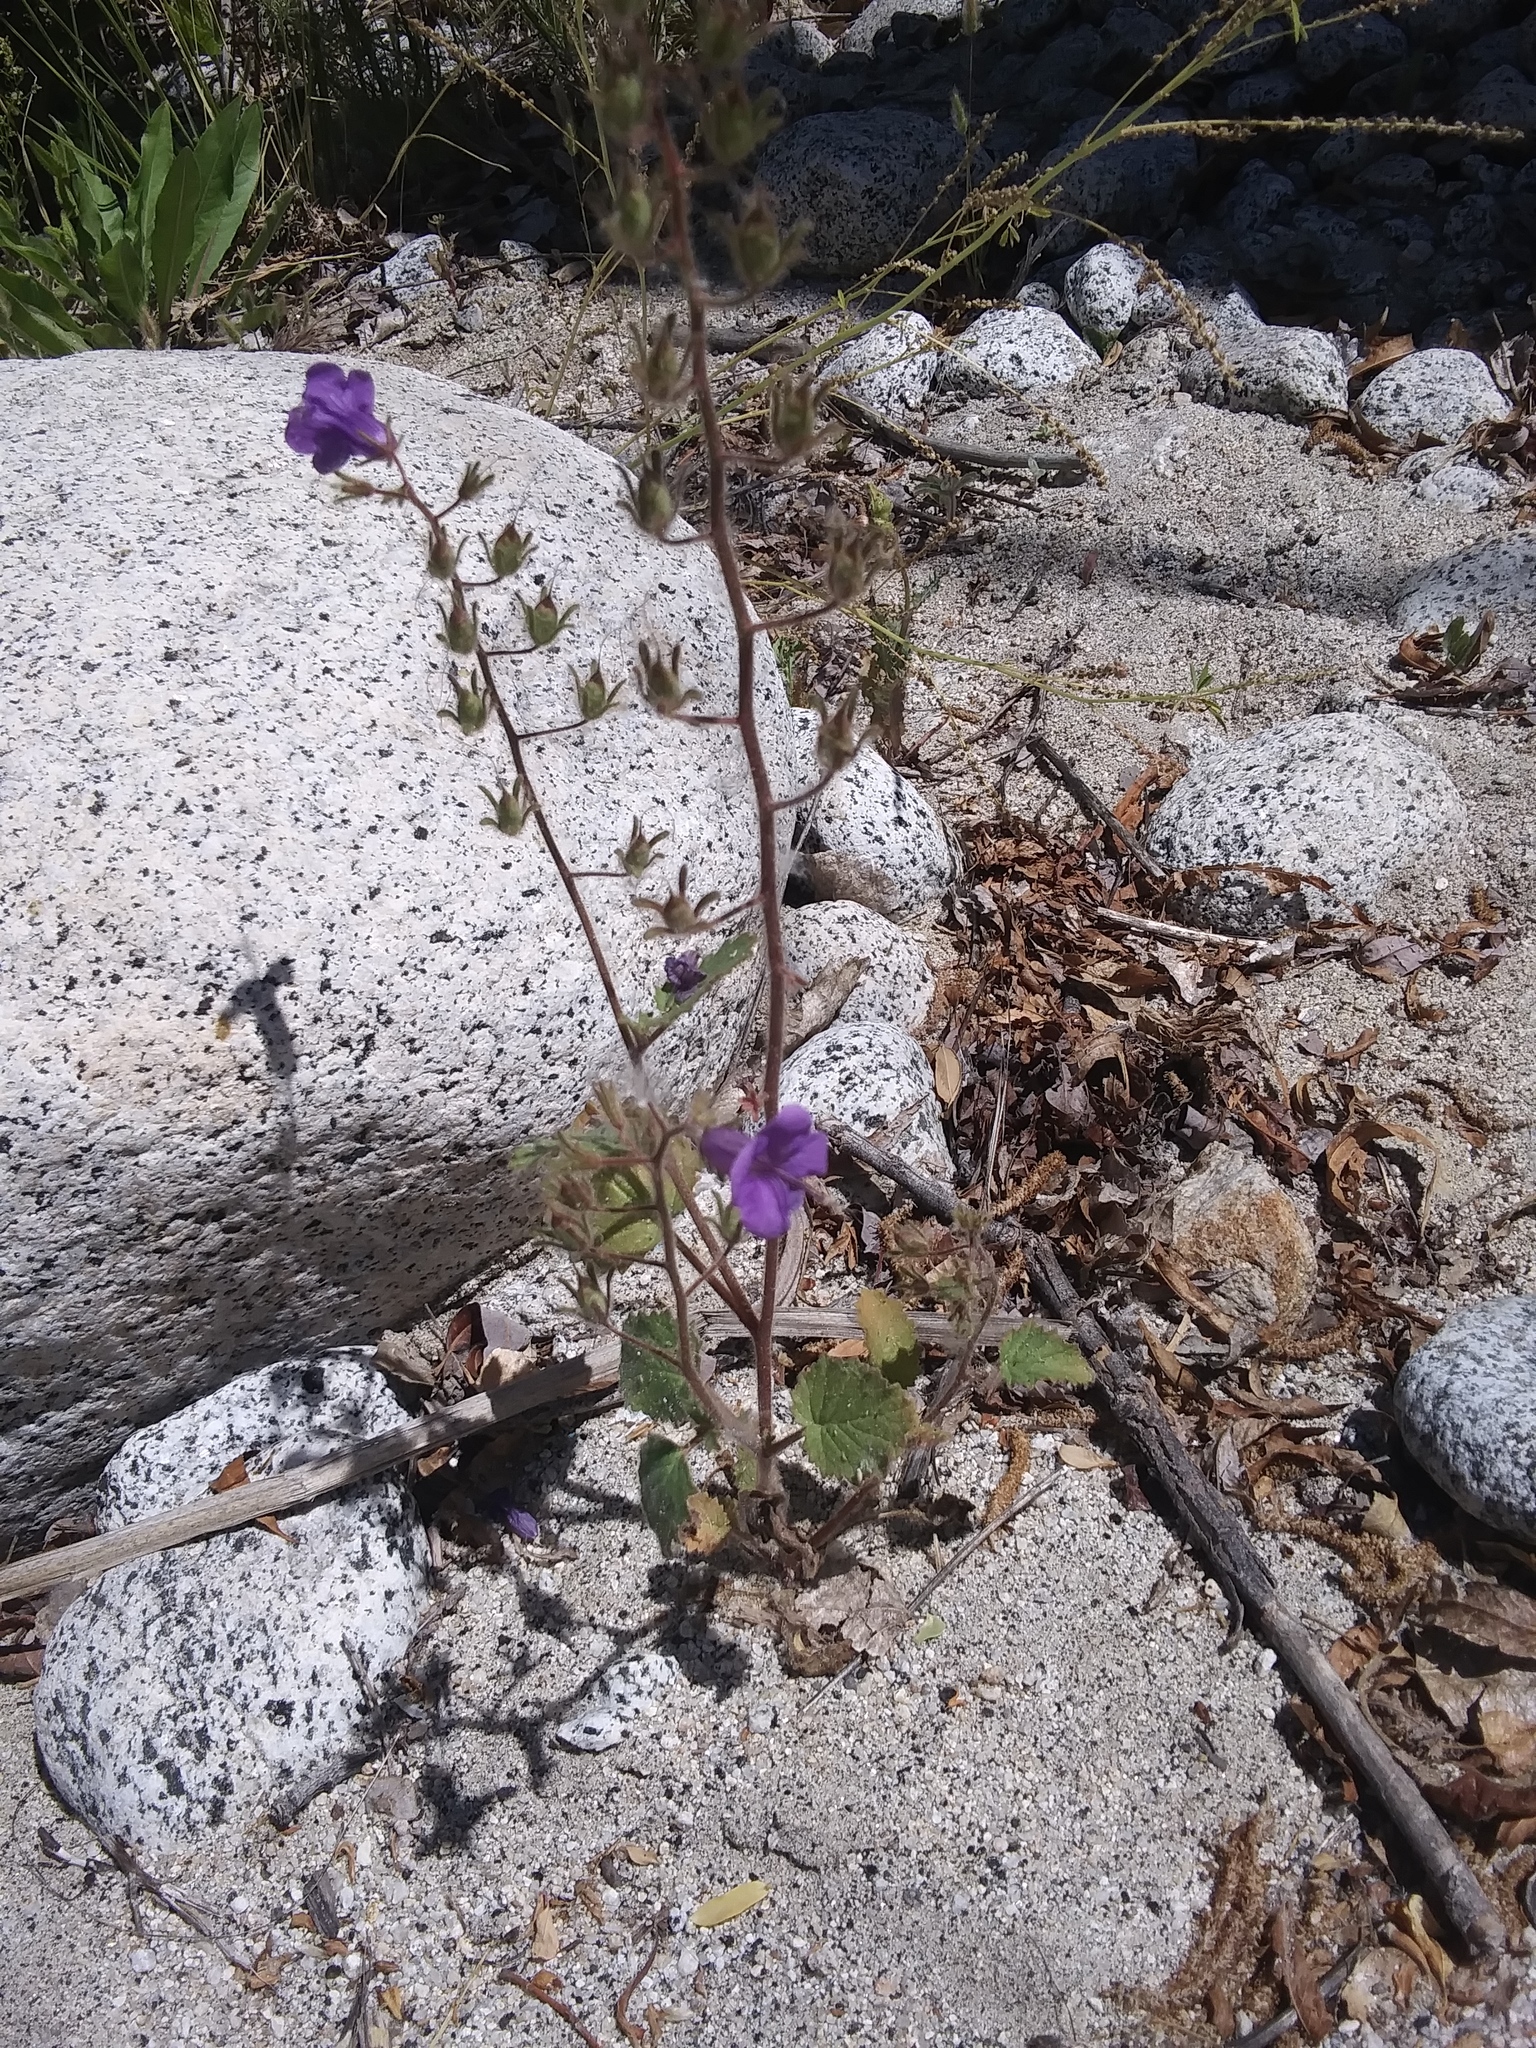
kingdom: Plantae
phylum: Tracheophyta
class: Magnoliopsida
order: Boraginales
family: Hydrophyllaceae
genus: Phacelia
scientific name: Phacelia minor
